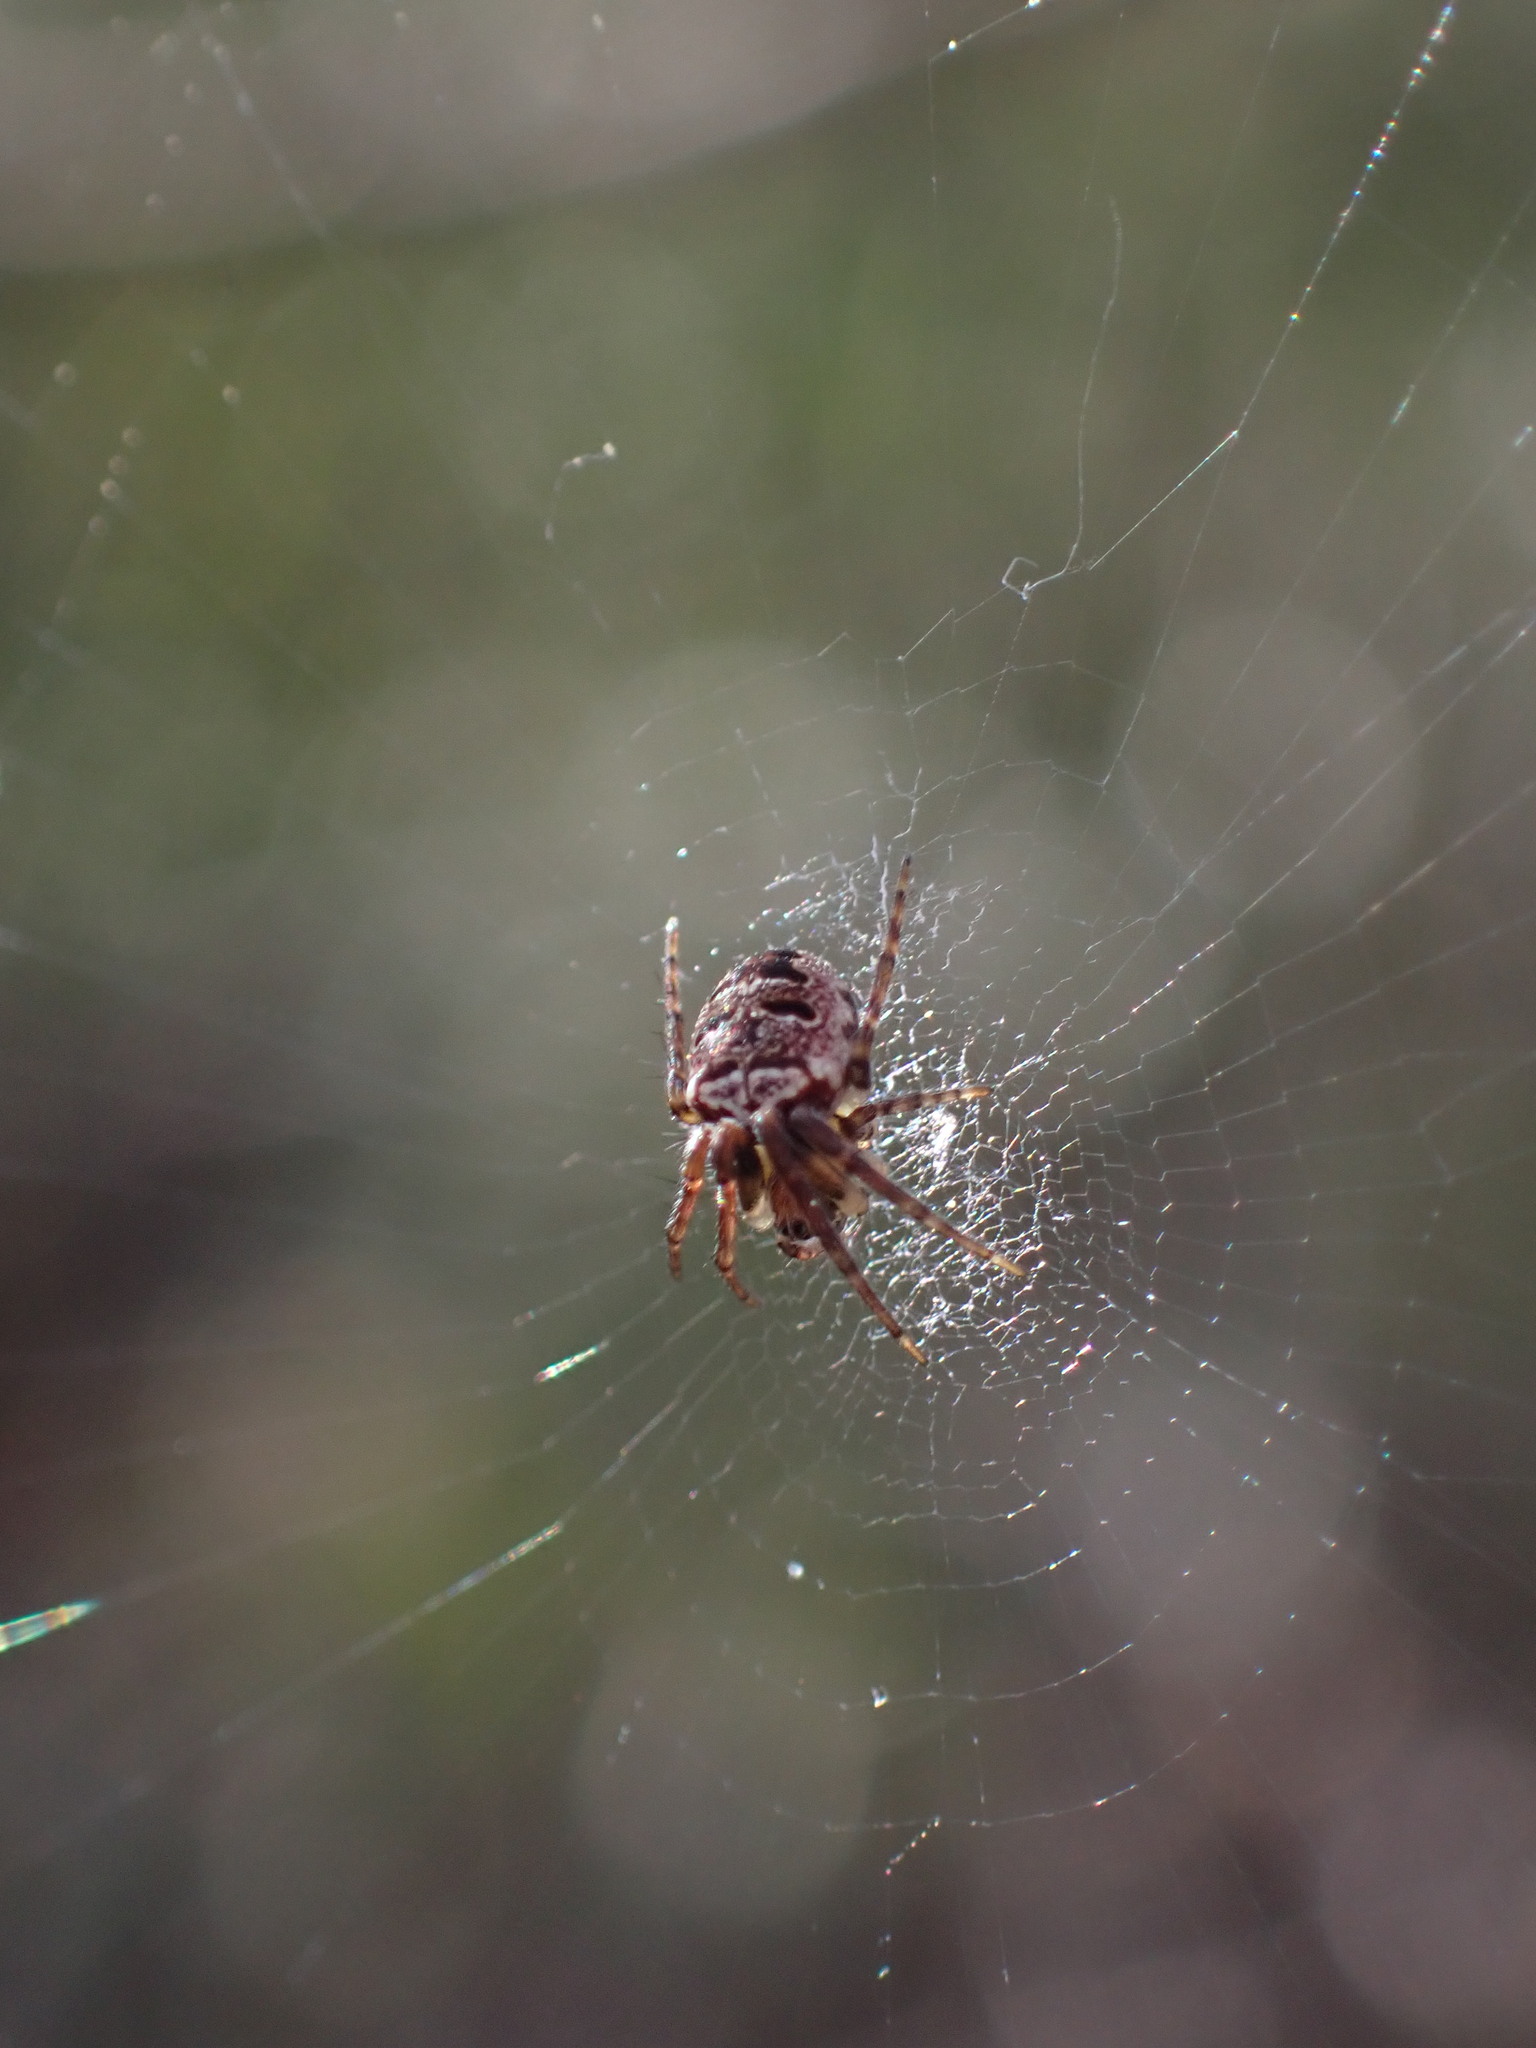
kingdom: Animalia
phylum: Arthropoda
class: Arachnida
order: Araneae
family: Araneidae
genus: Zilla
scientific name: Zilla diodia
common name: Zilla diodia
